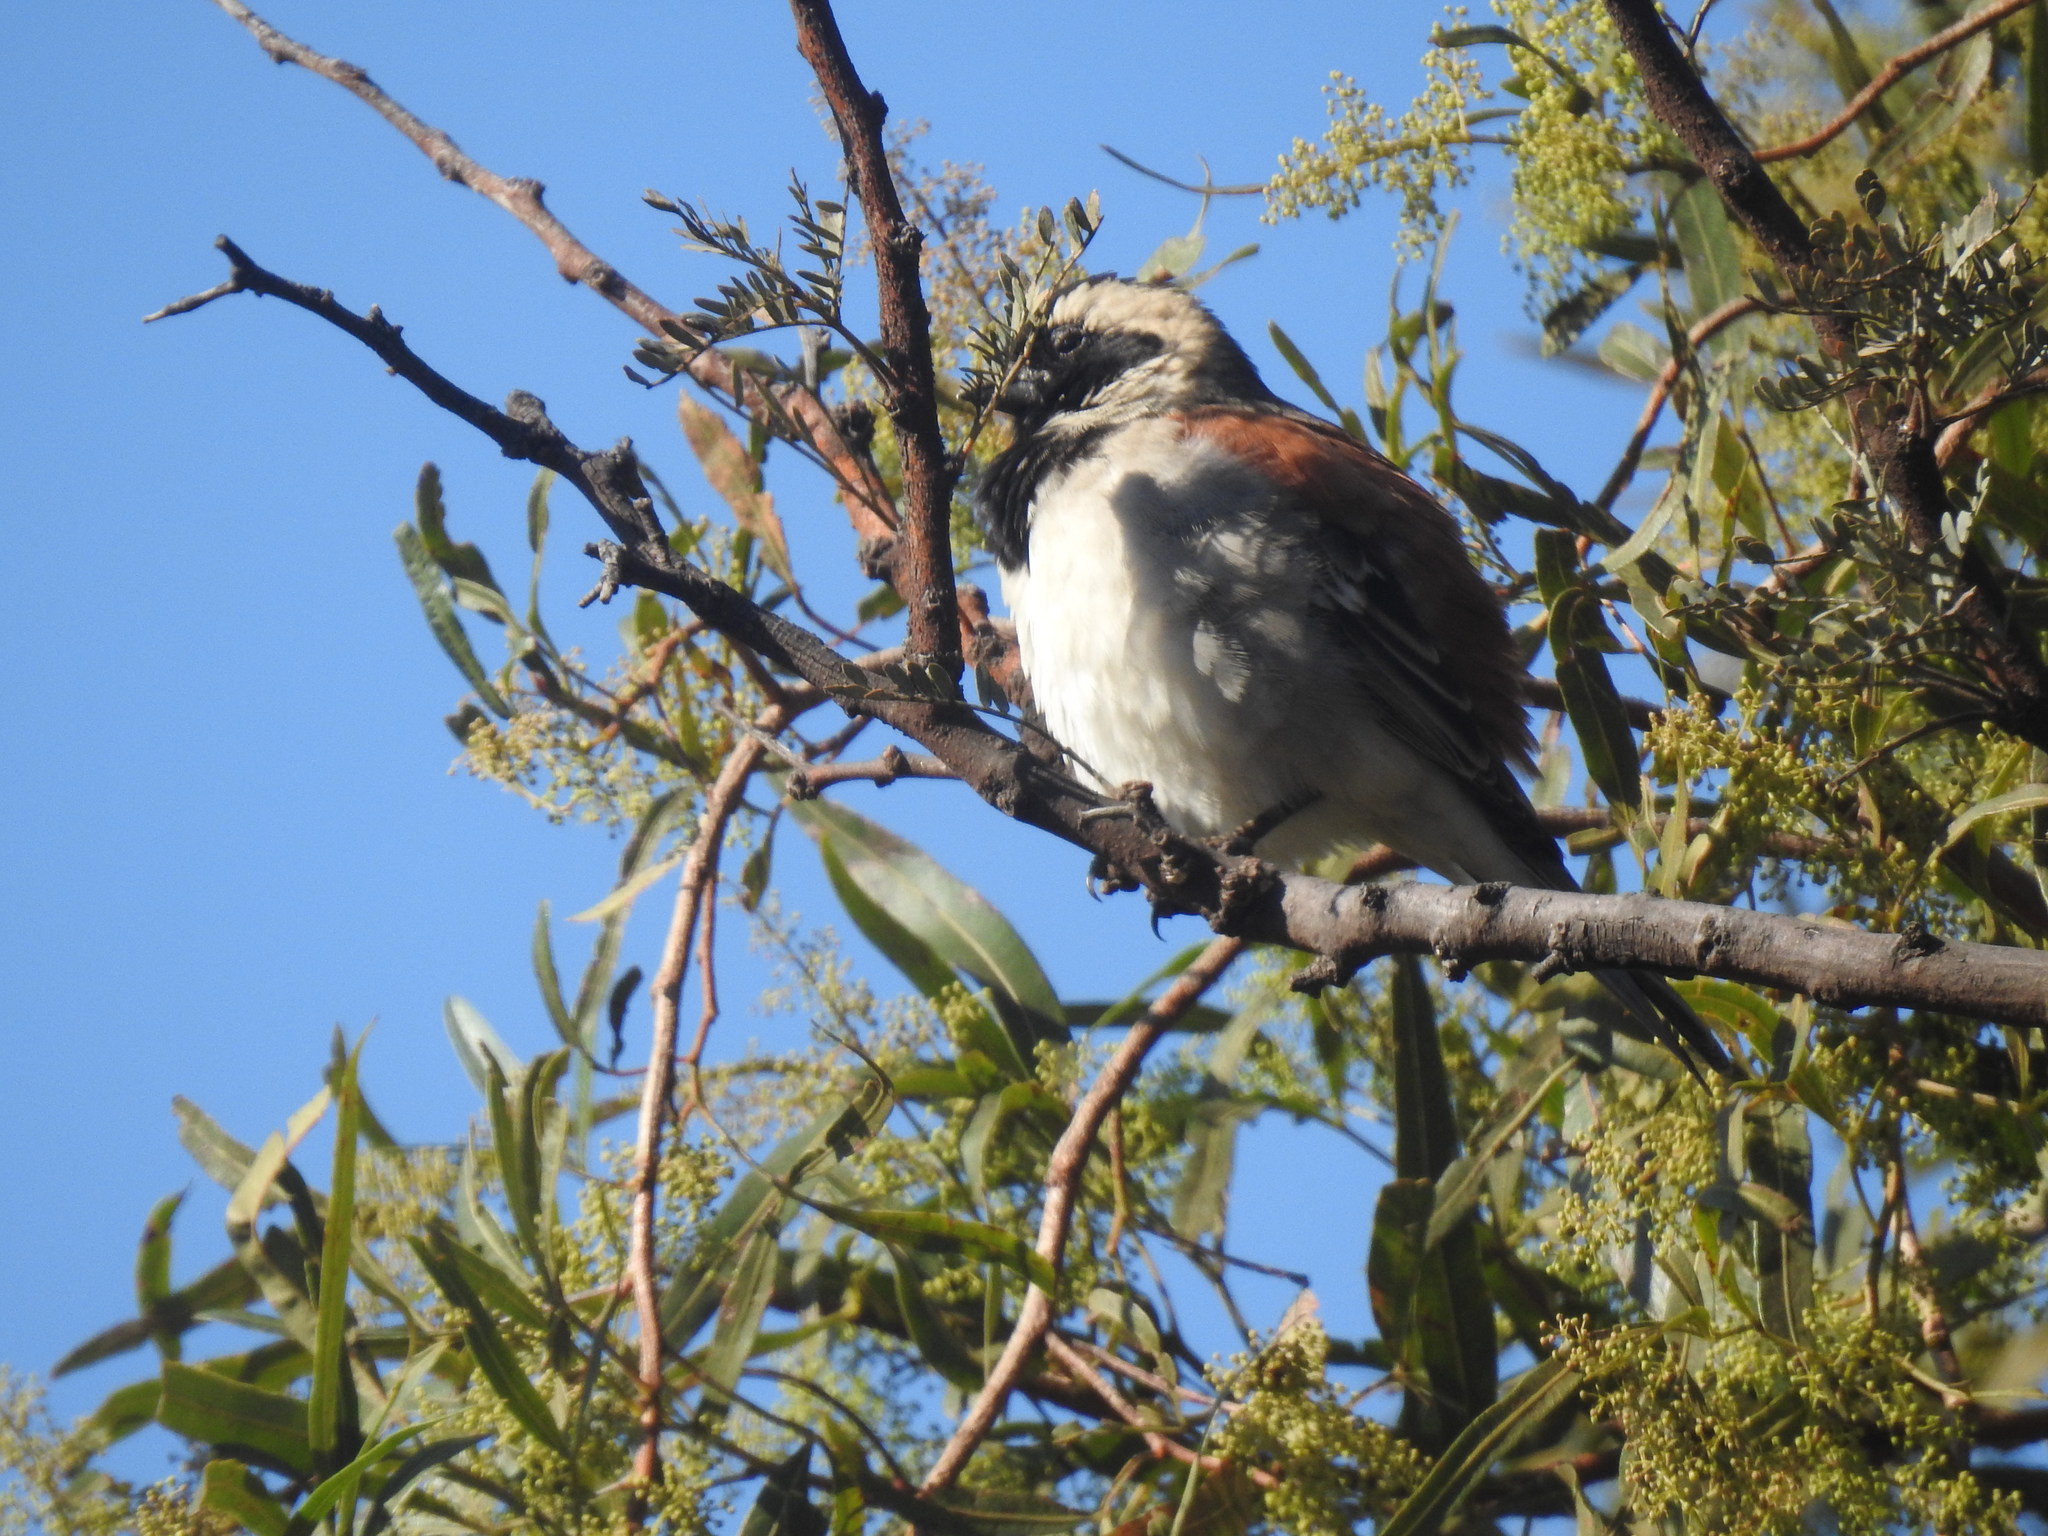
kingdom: Animalia
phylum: Chordata
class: Aves
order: Passeriformes
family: Passeridae
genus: Passer
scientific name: Passer melanurus
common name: Cape sparrow
